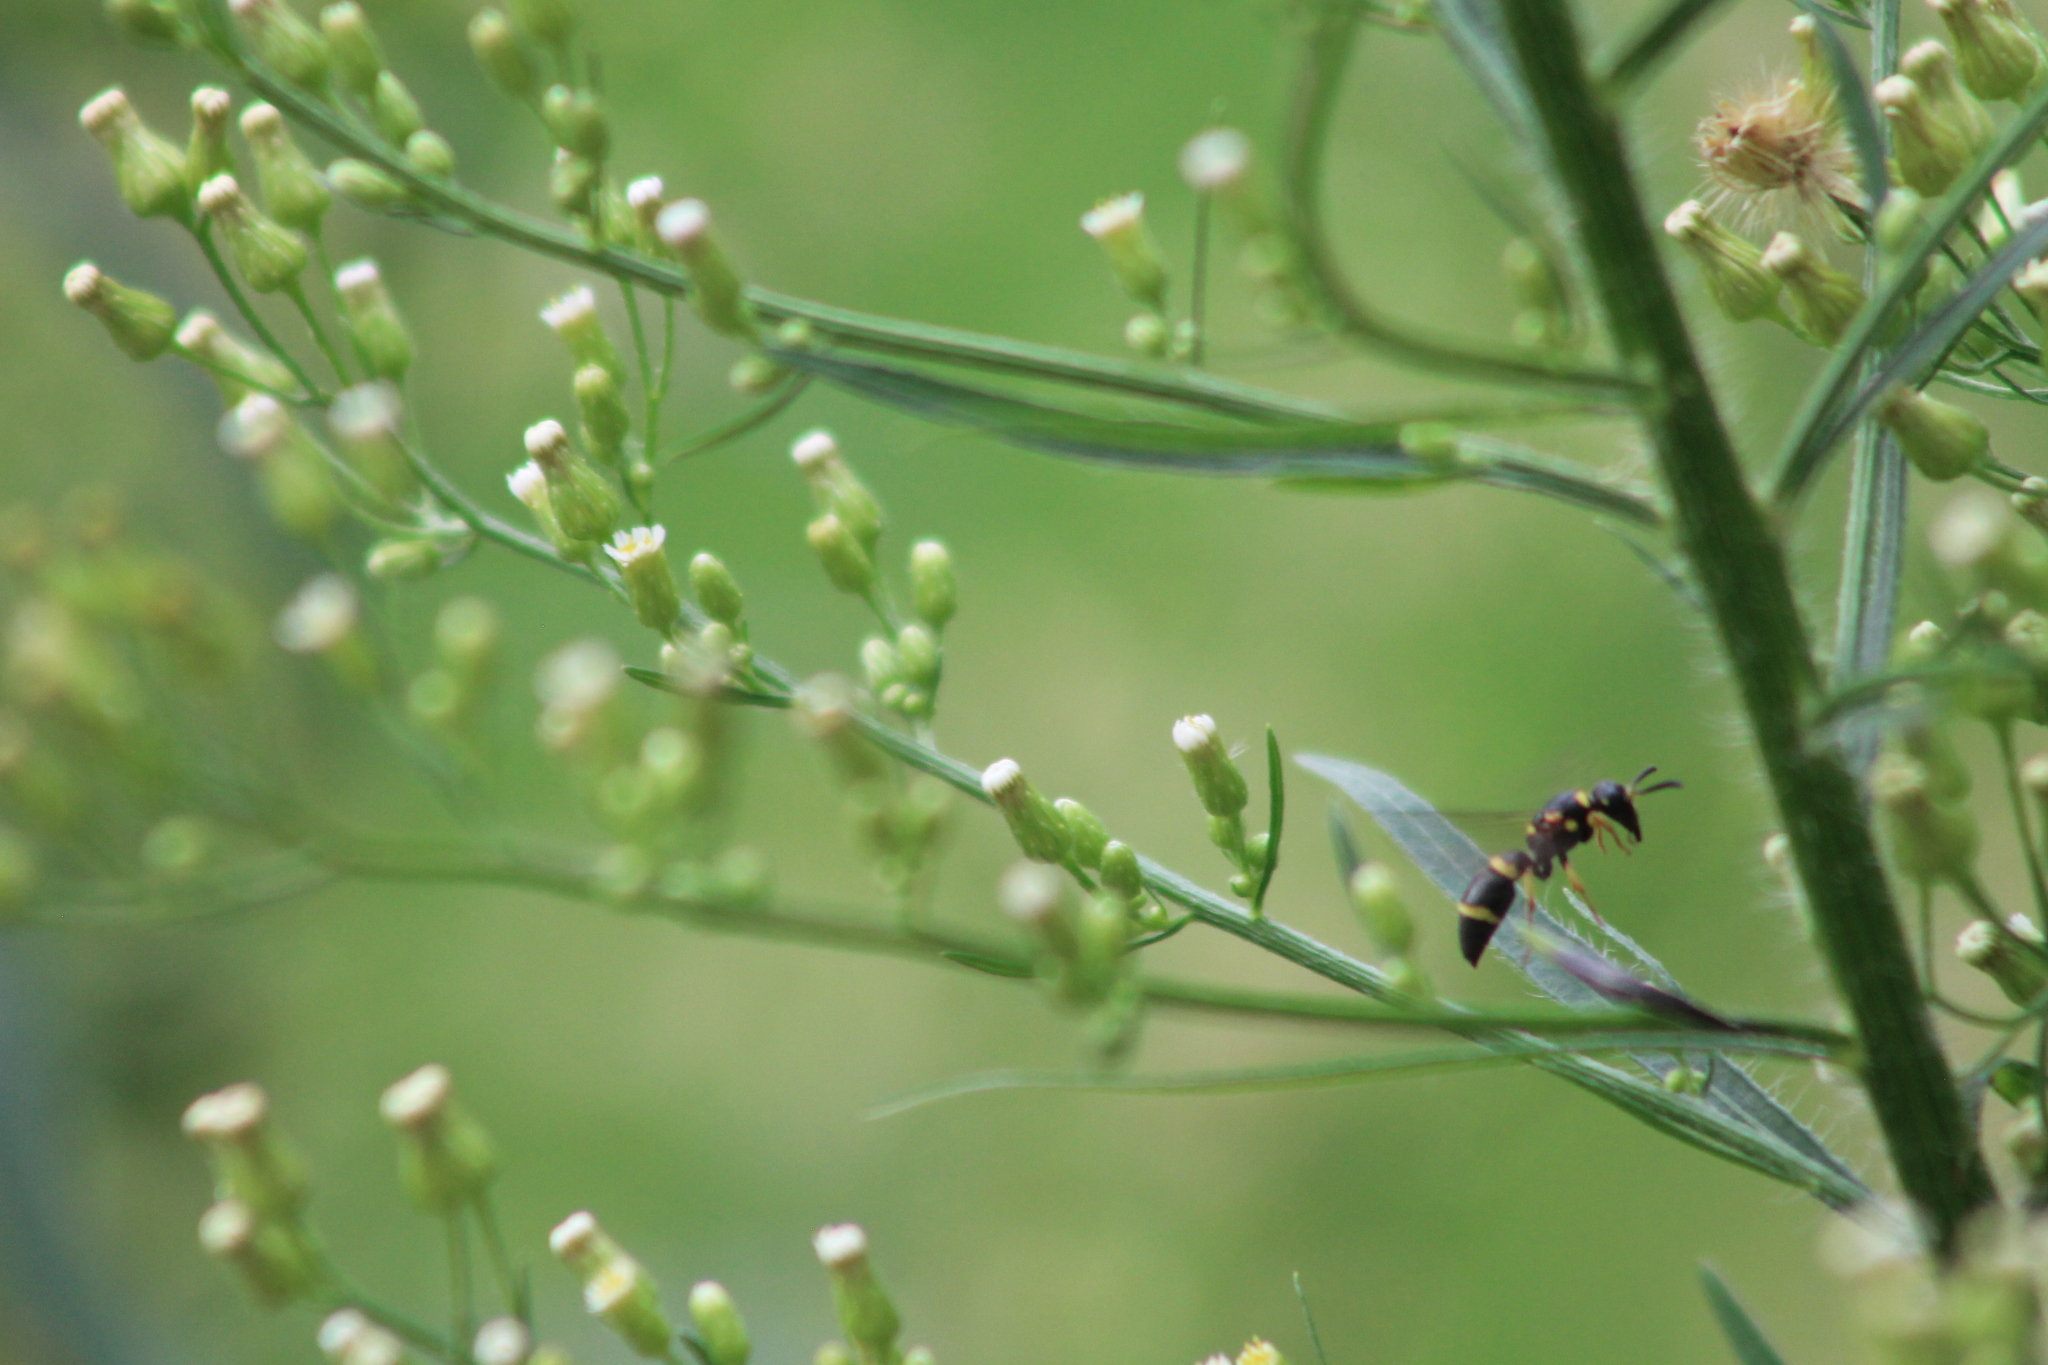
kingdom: Animalia
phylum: Arthropoda
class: Insecta
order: Hymenoptera
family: Eumenidae
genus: Parancistrocerus
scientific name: Parancistrocerus perennis
